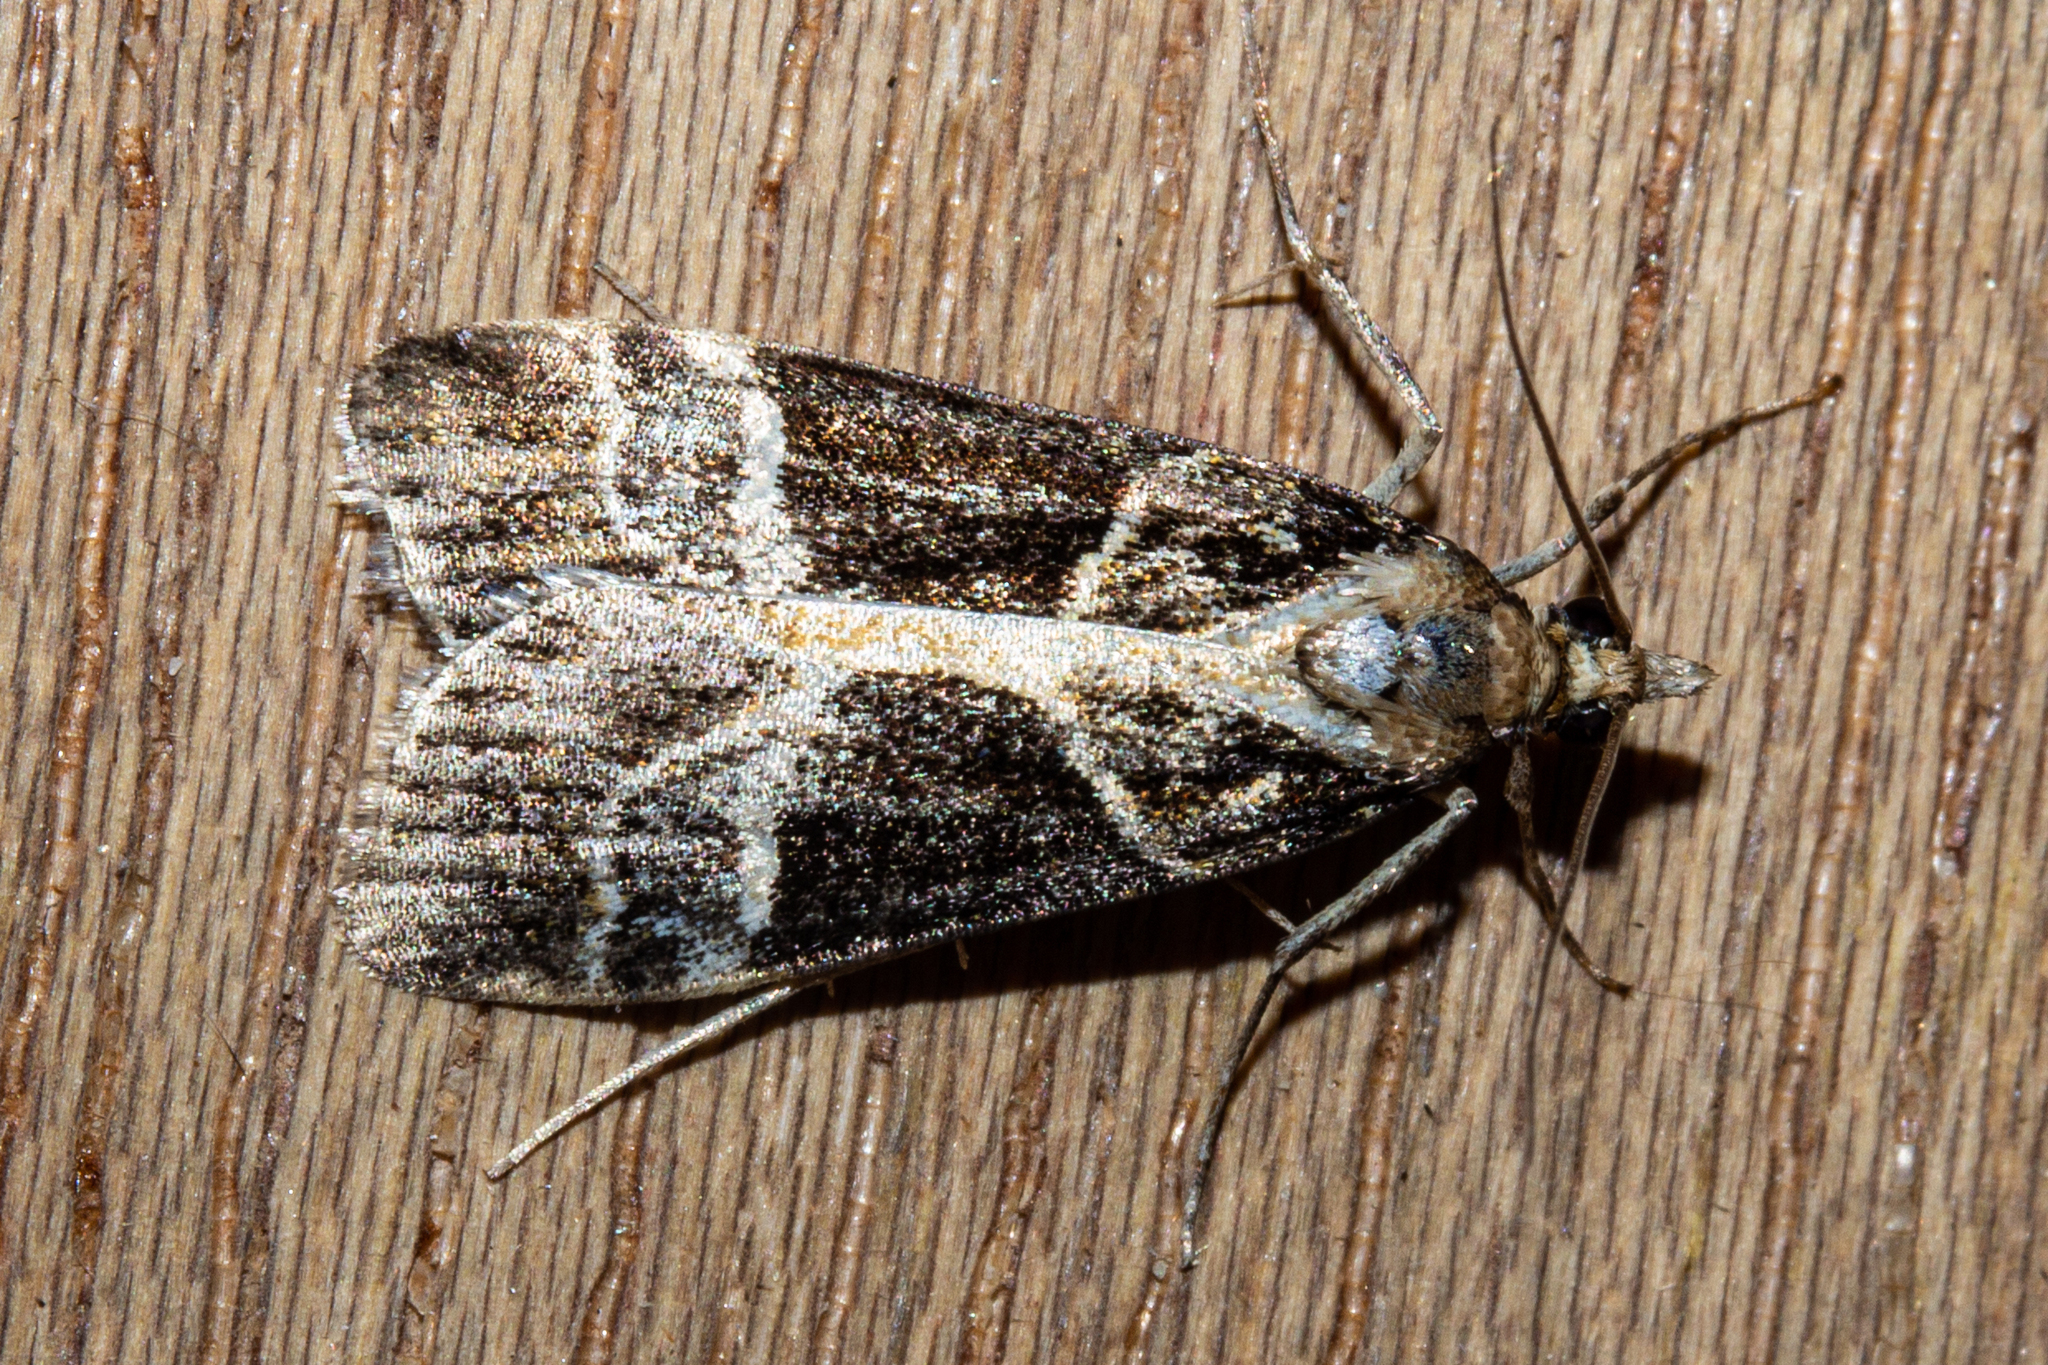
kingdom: Animalia
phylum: Arthropoda
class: Insecta
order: Lepidoptera
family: Crambidae
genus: Eudonia
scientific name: Eudonia melanaegis
